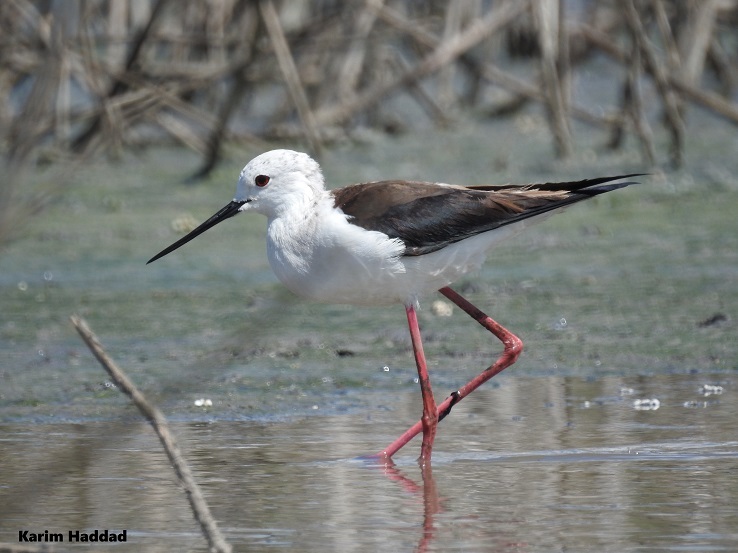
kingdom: Animalia
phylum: Chordata
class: Aves
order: Charadriiformes
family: Recurvirostridae
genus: Himantopus
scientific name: Himantopus himantopus
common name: Black-winged stilt
